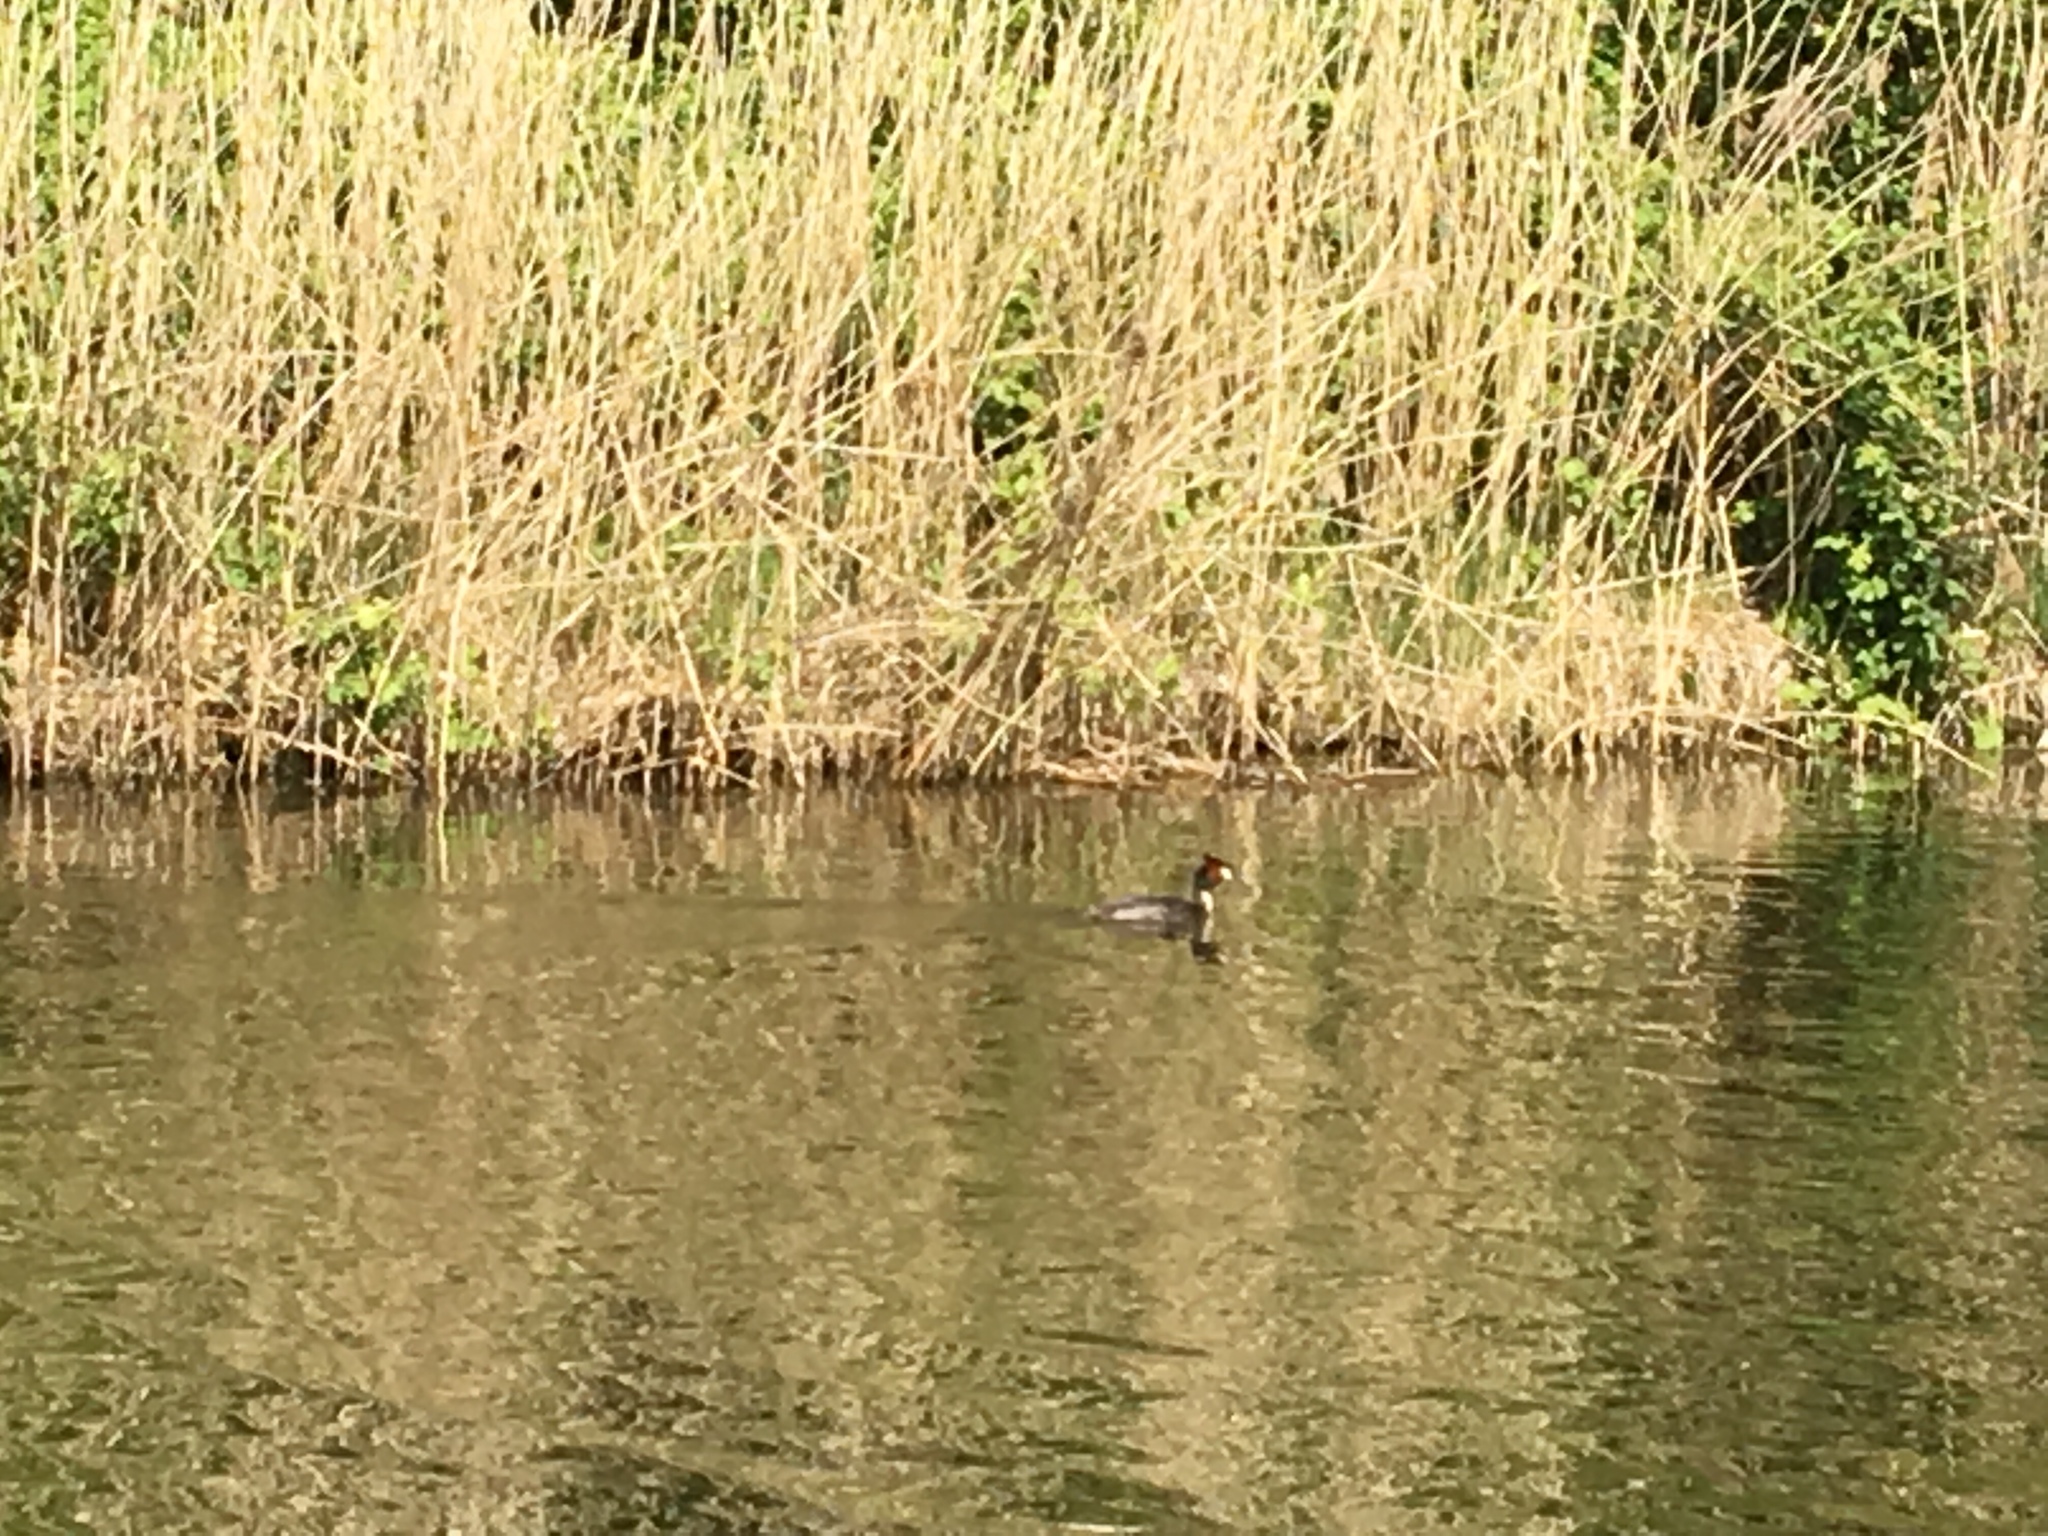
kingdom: Animalia
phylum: Chordata
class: Aves
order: Podicipediformes
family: Podicipedidae
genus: Podiceps
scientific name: Podiceps cristatus
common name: Great crested grebe
